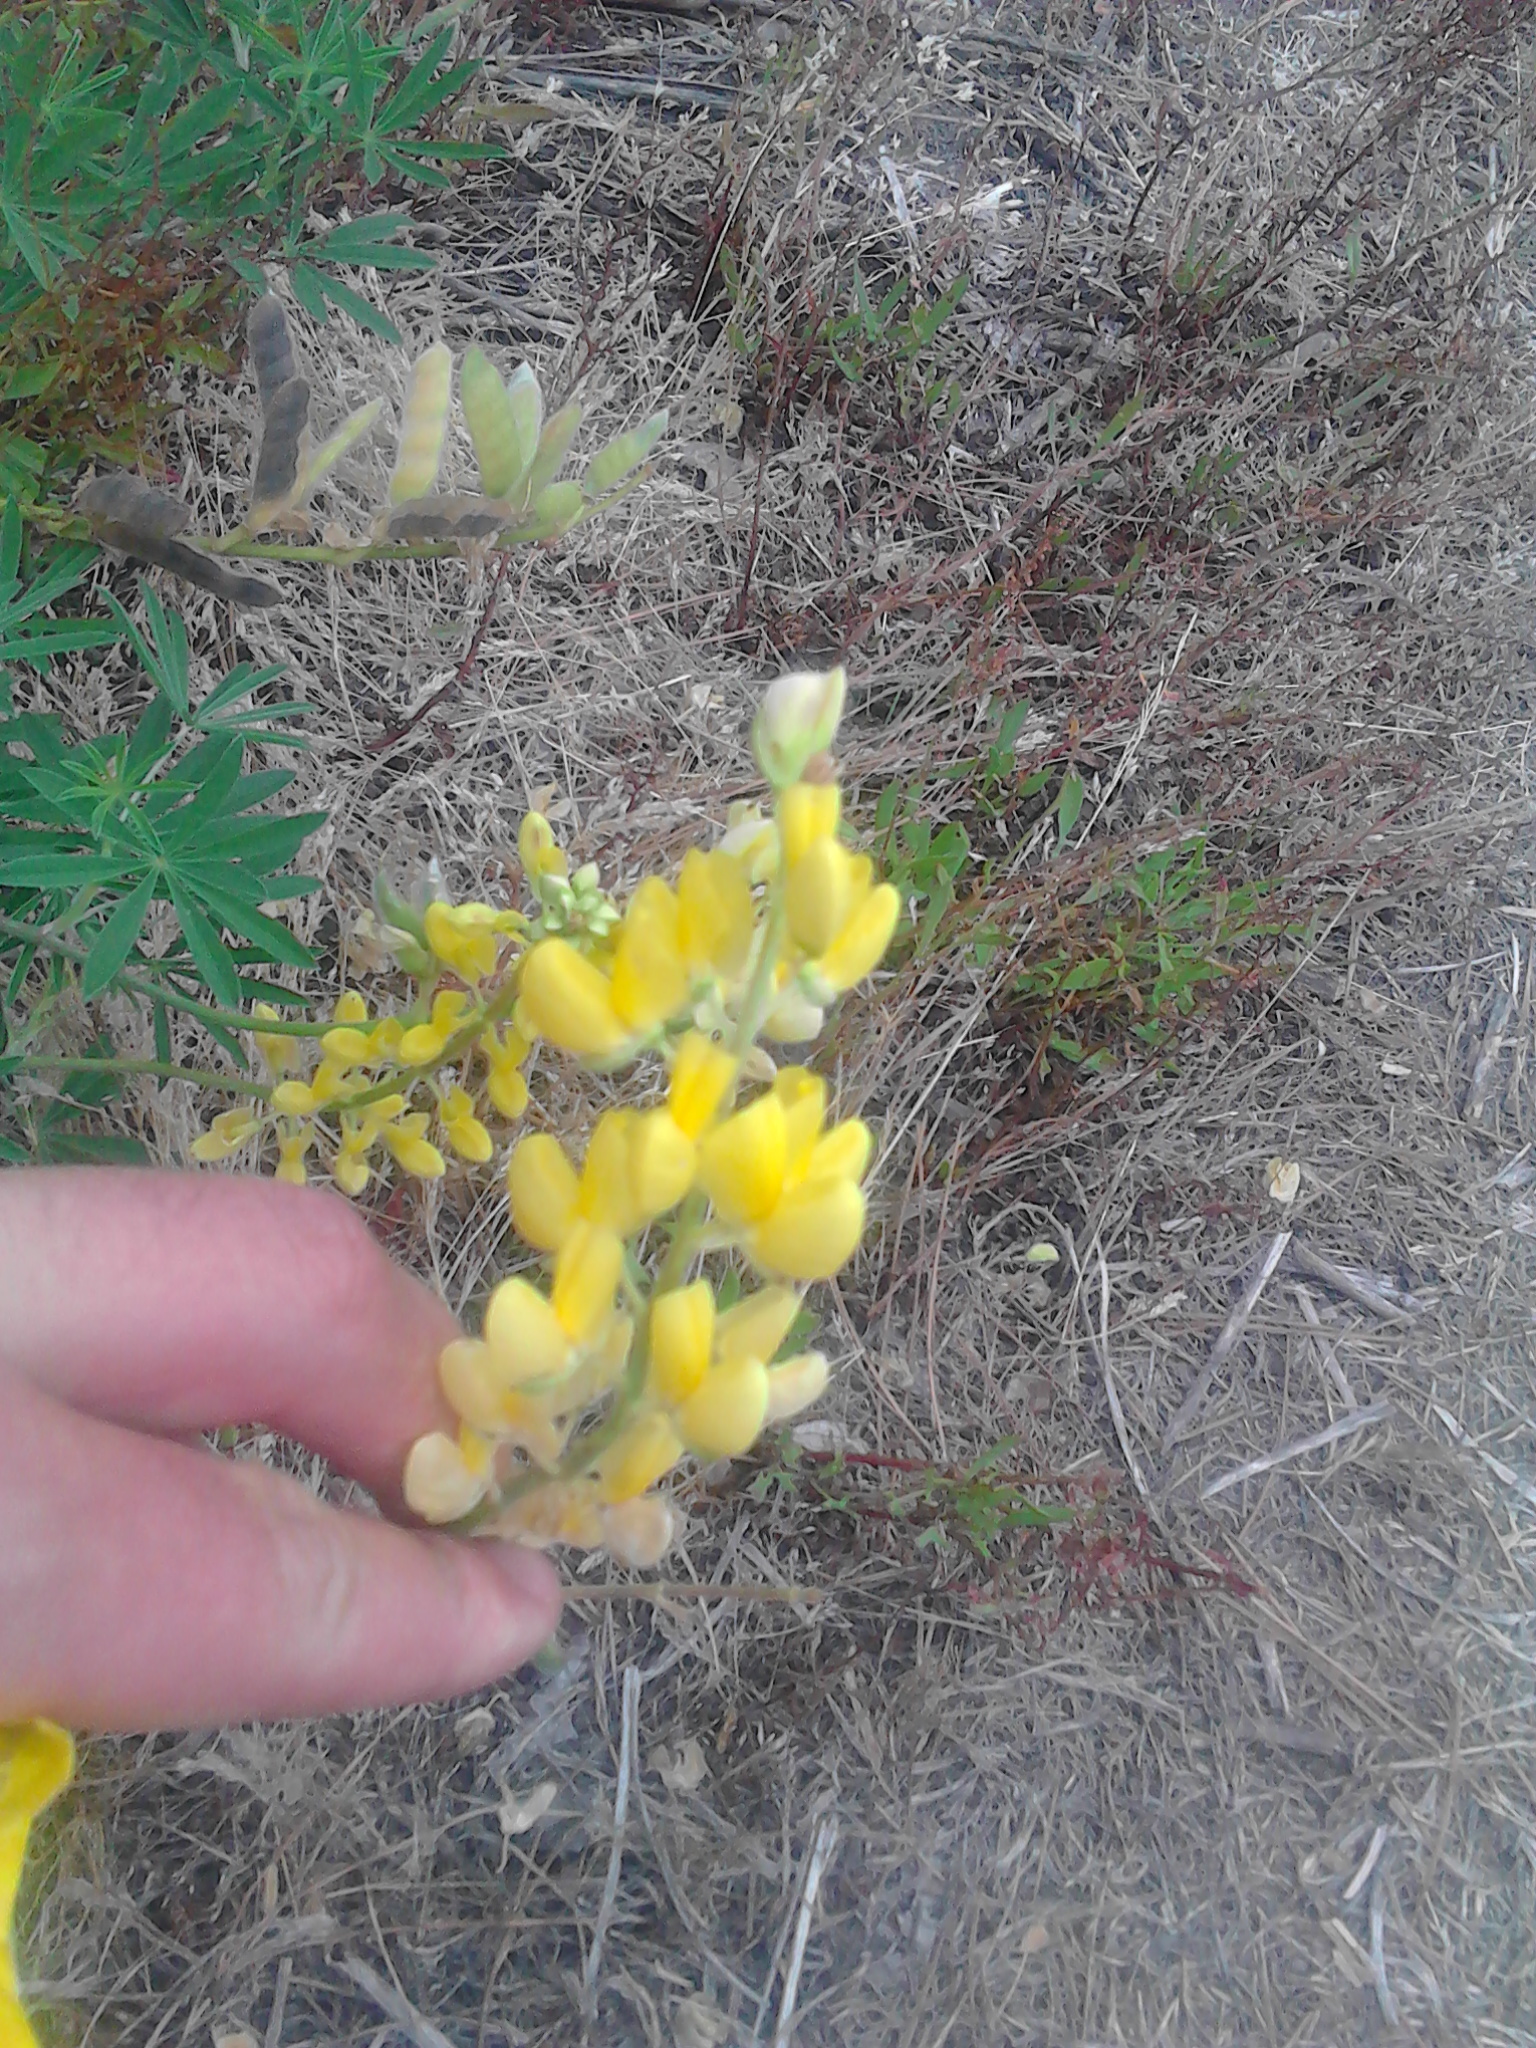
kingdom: Plantae
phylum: Tracheophyta
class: Magnoliopsida
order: Fabales
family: Fabaceae
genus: Lupinus
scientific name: Lupinus arboreus
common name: Yellow bush lupine
